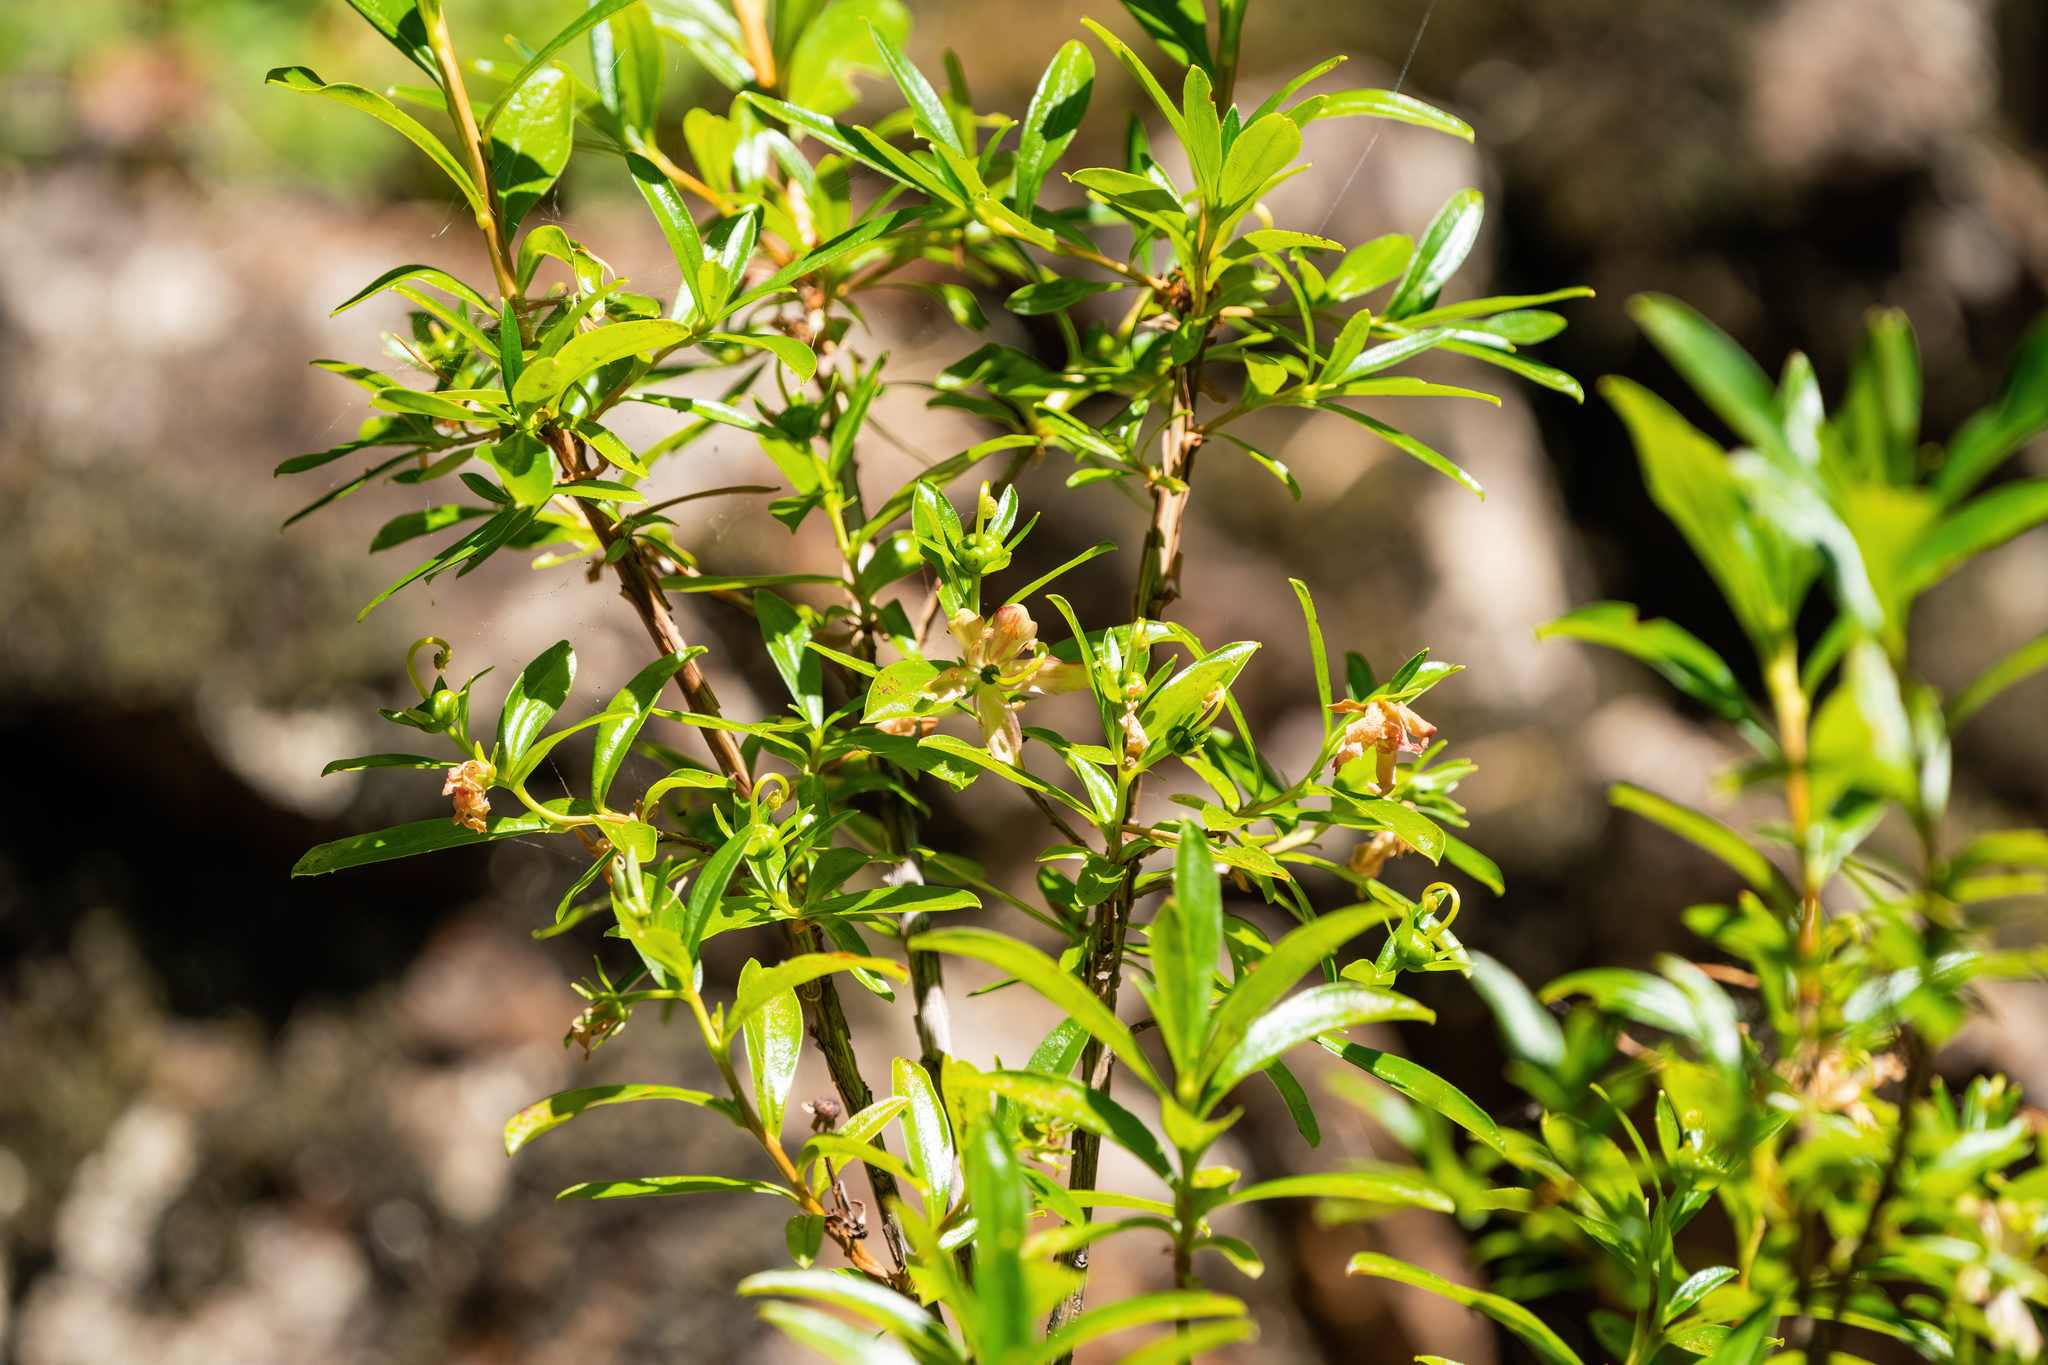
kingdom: Plantae
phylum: Tracheophyta
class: Magnoliopsida
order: Ericales
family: Ericaceae
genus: Elliottia
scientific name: Elliottia pyroliflora
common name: Copperbush
